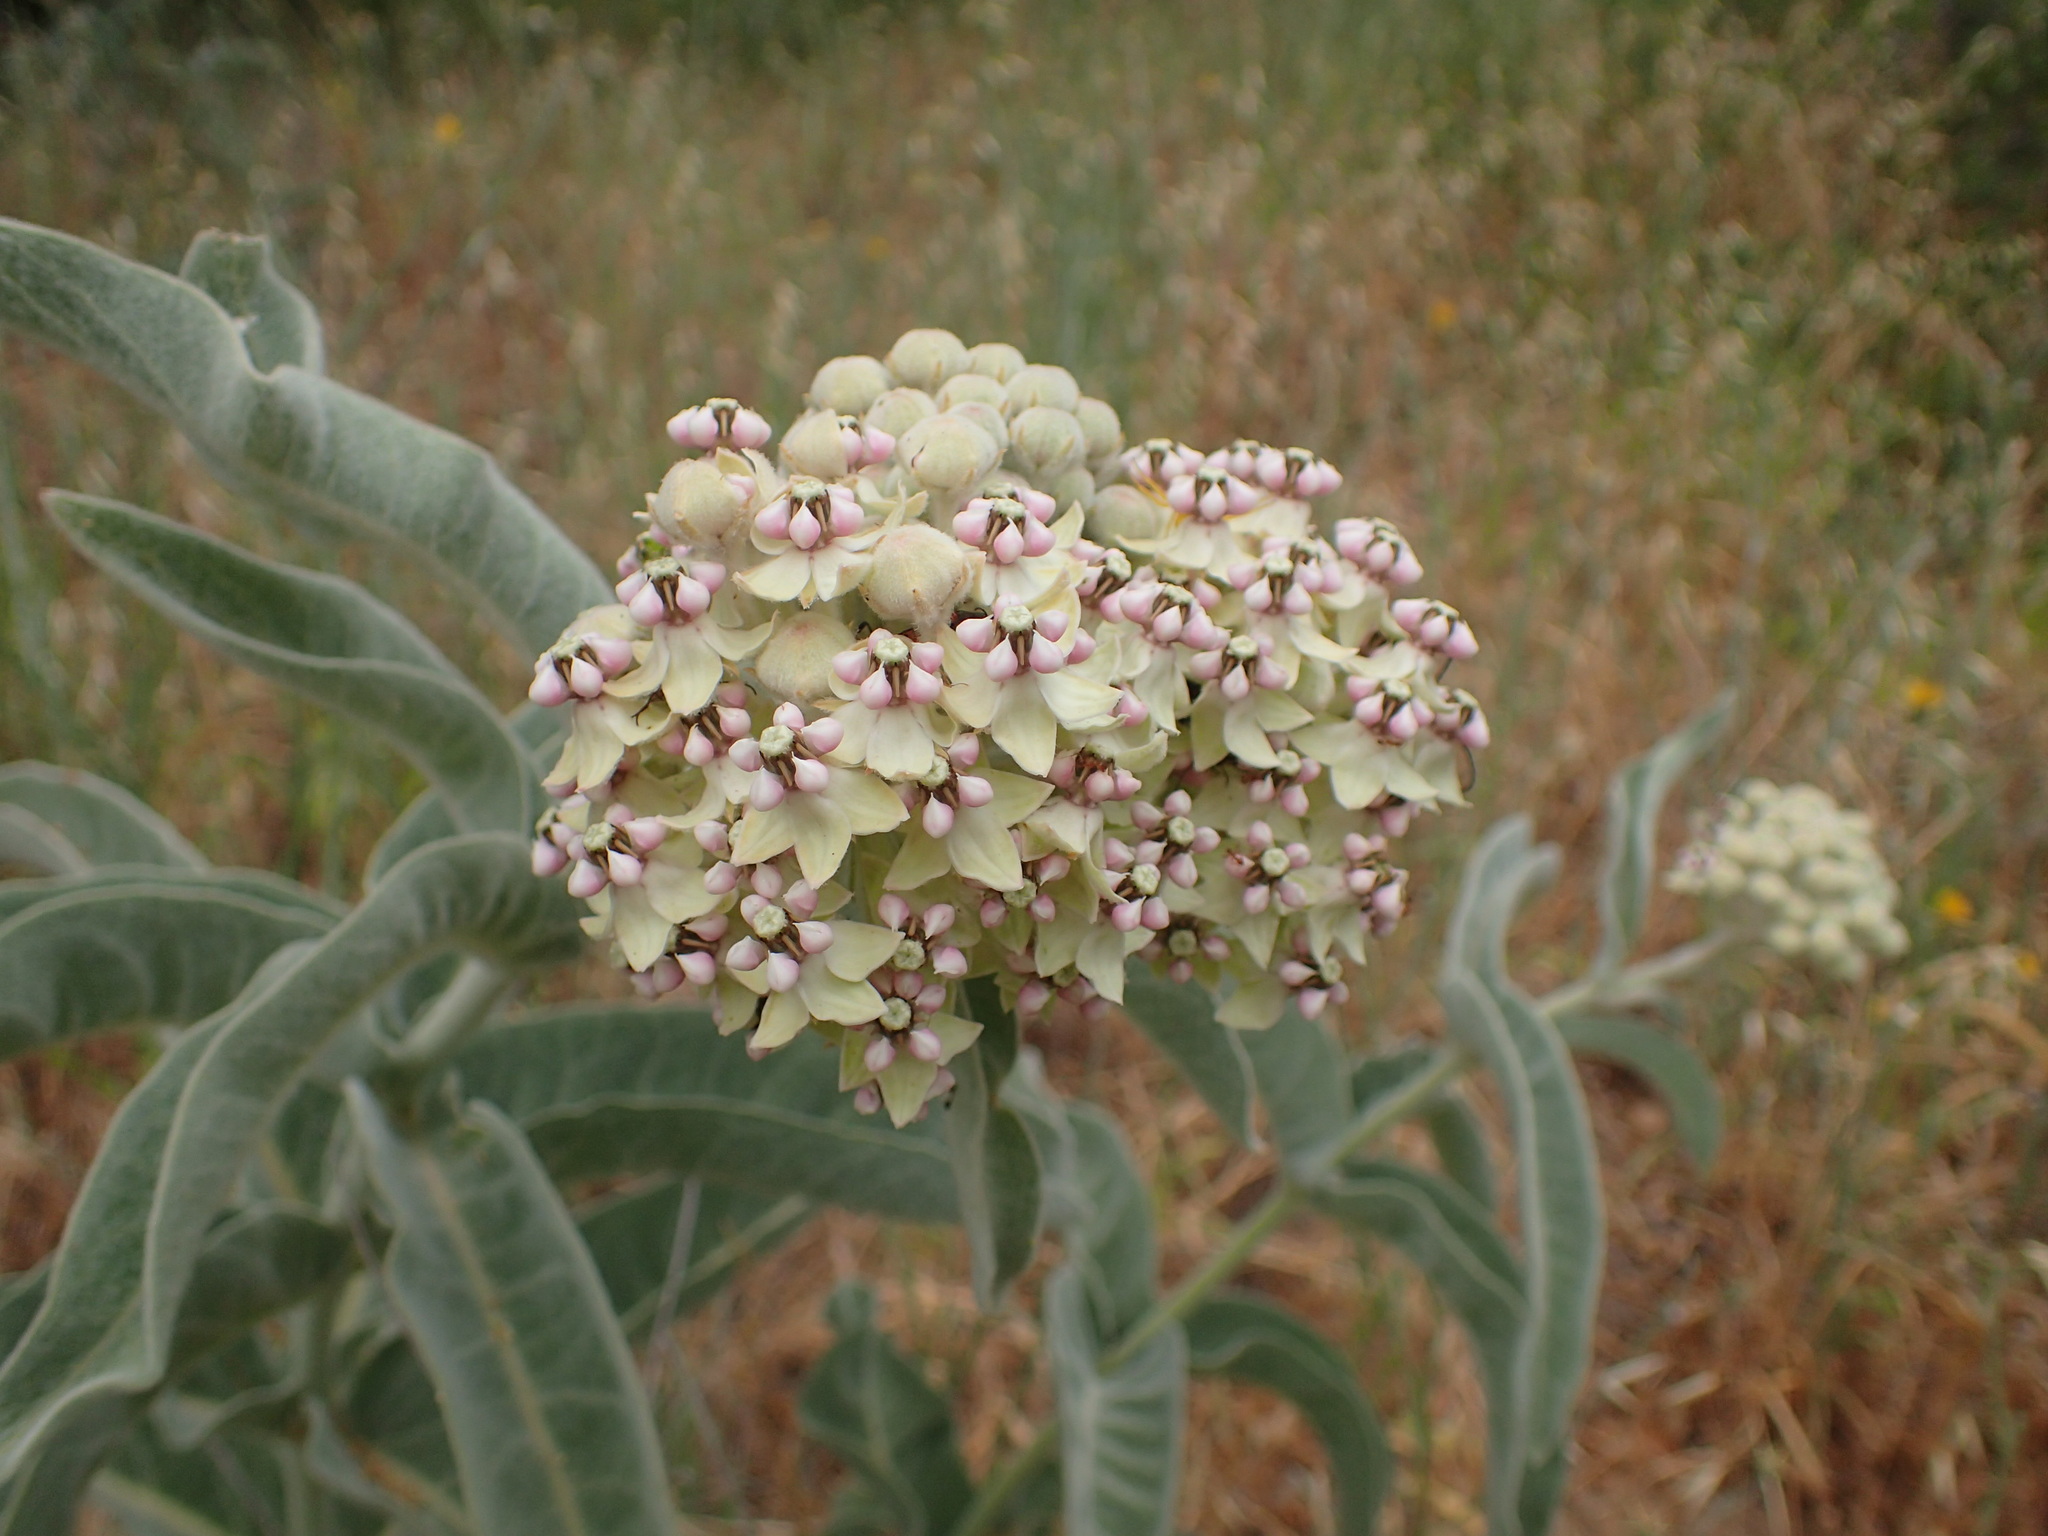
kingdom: Plantae
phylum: Tracheophyta
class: Magnoliopsida
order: Gentianales
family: Apocynaceae
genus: Asclepias
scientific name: Asclepias eriocarpa
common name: Indian milkweed
